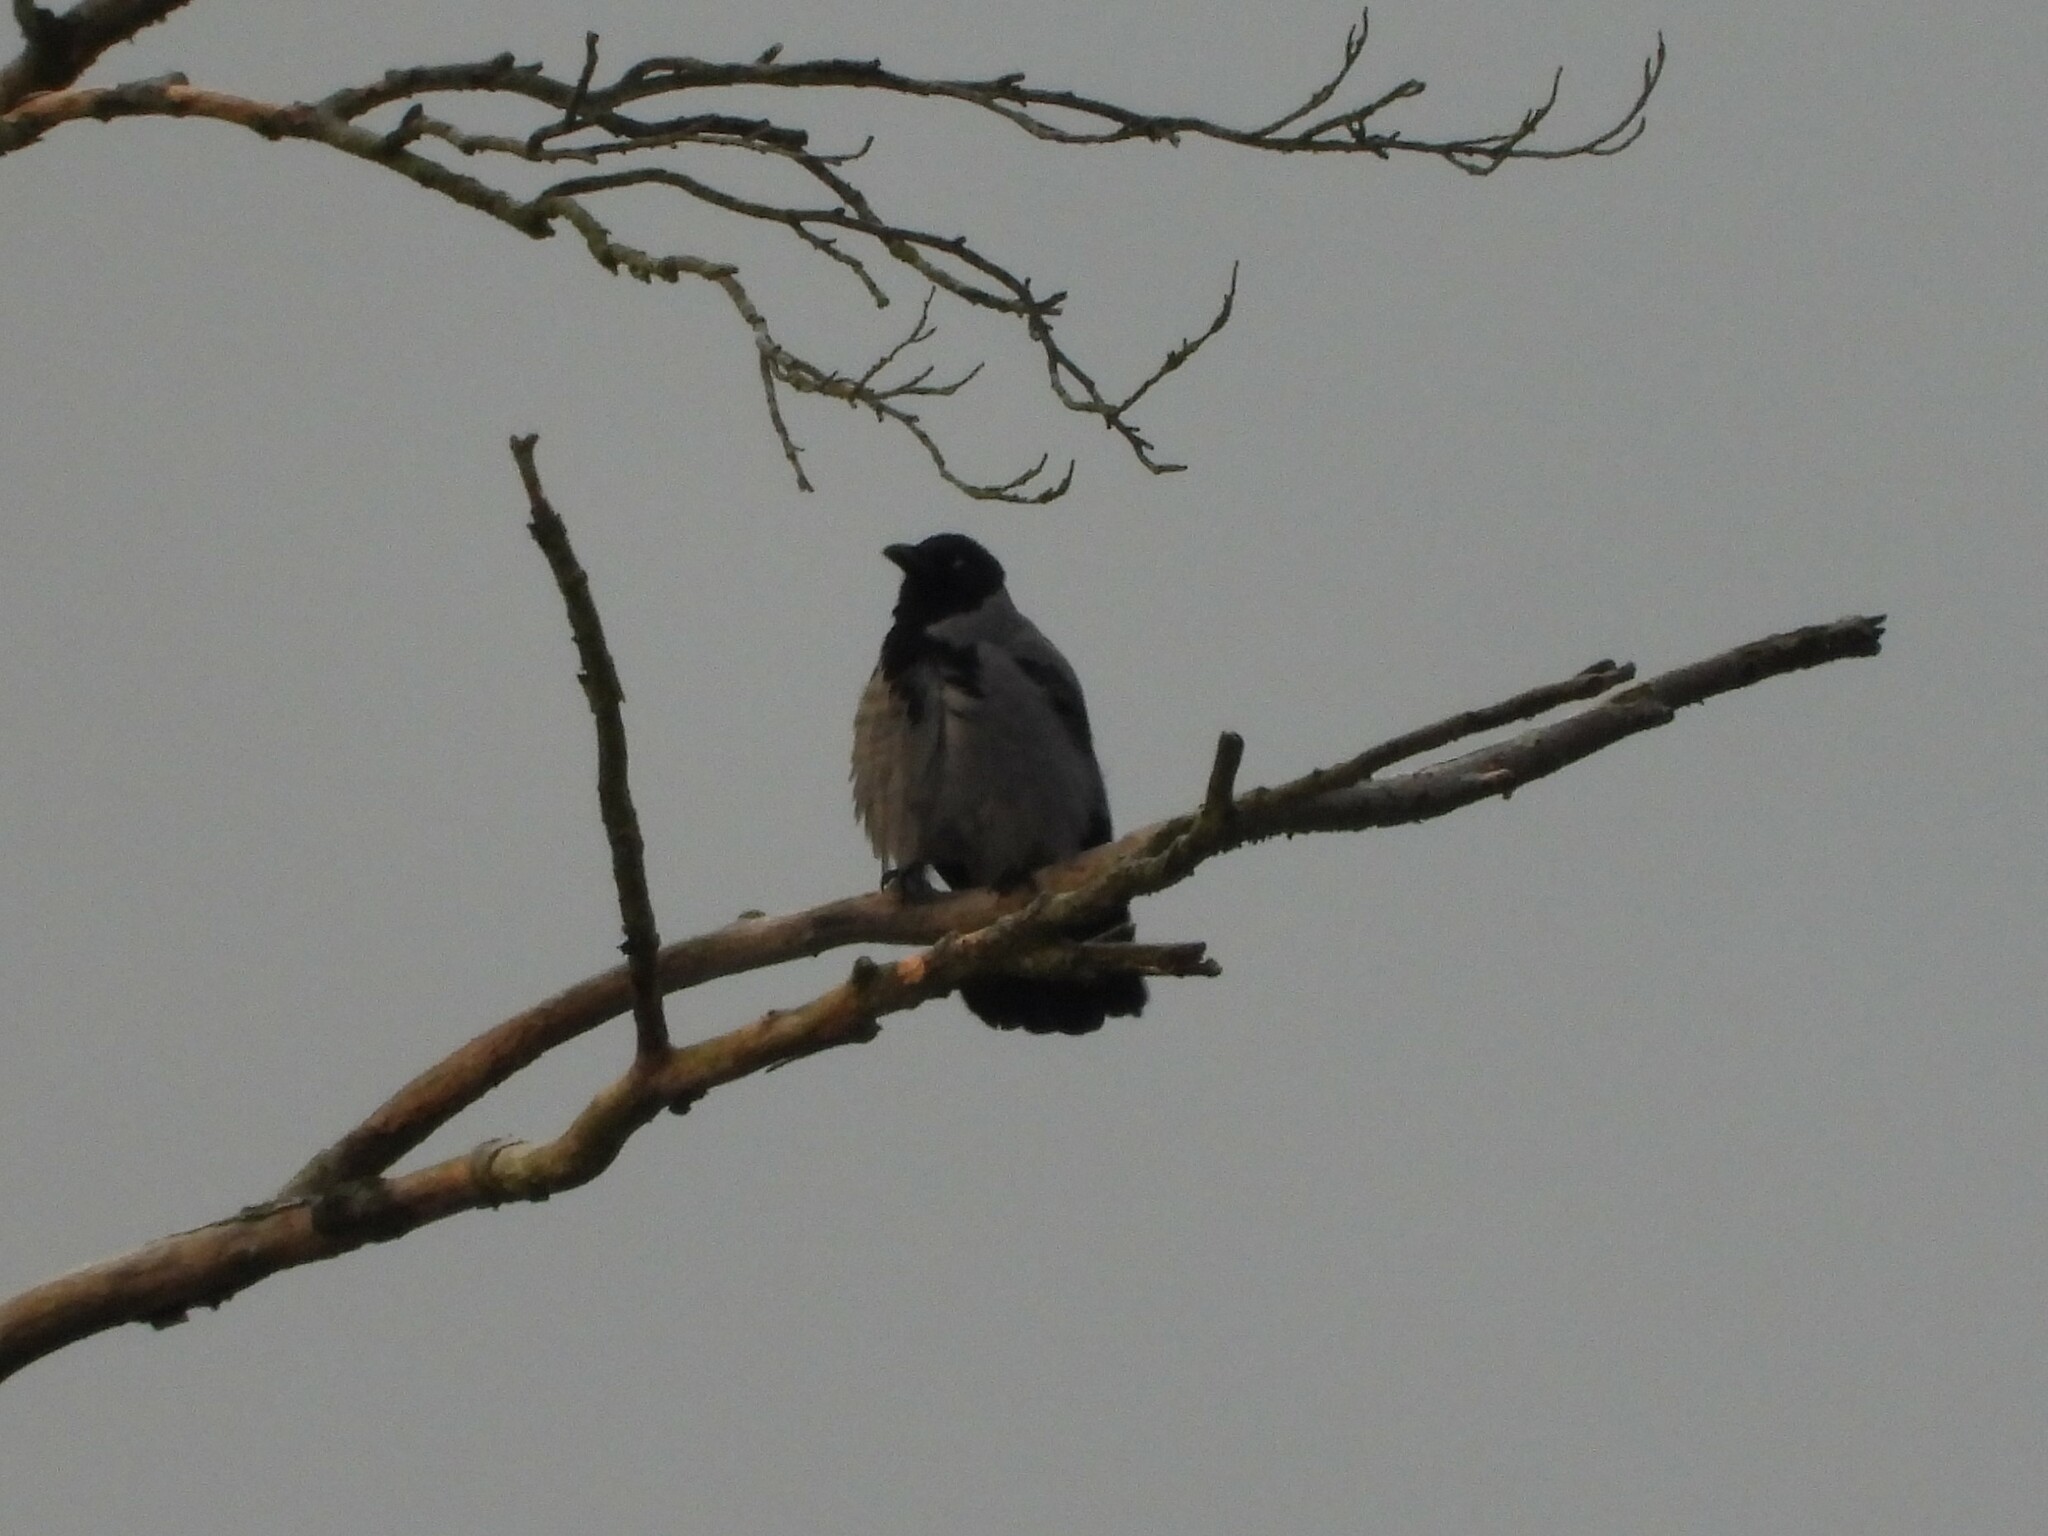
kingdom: Animalia
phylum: Chordata
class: Aves
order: Passeriformes
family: Corvidae
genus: Corvus
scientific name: Corvus cornix
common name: Hooded crow
